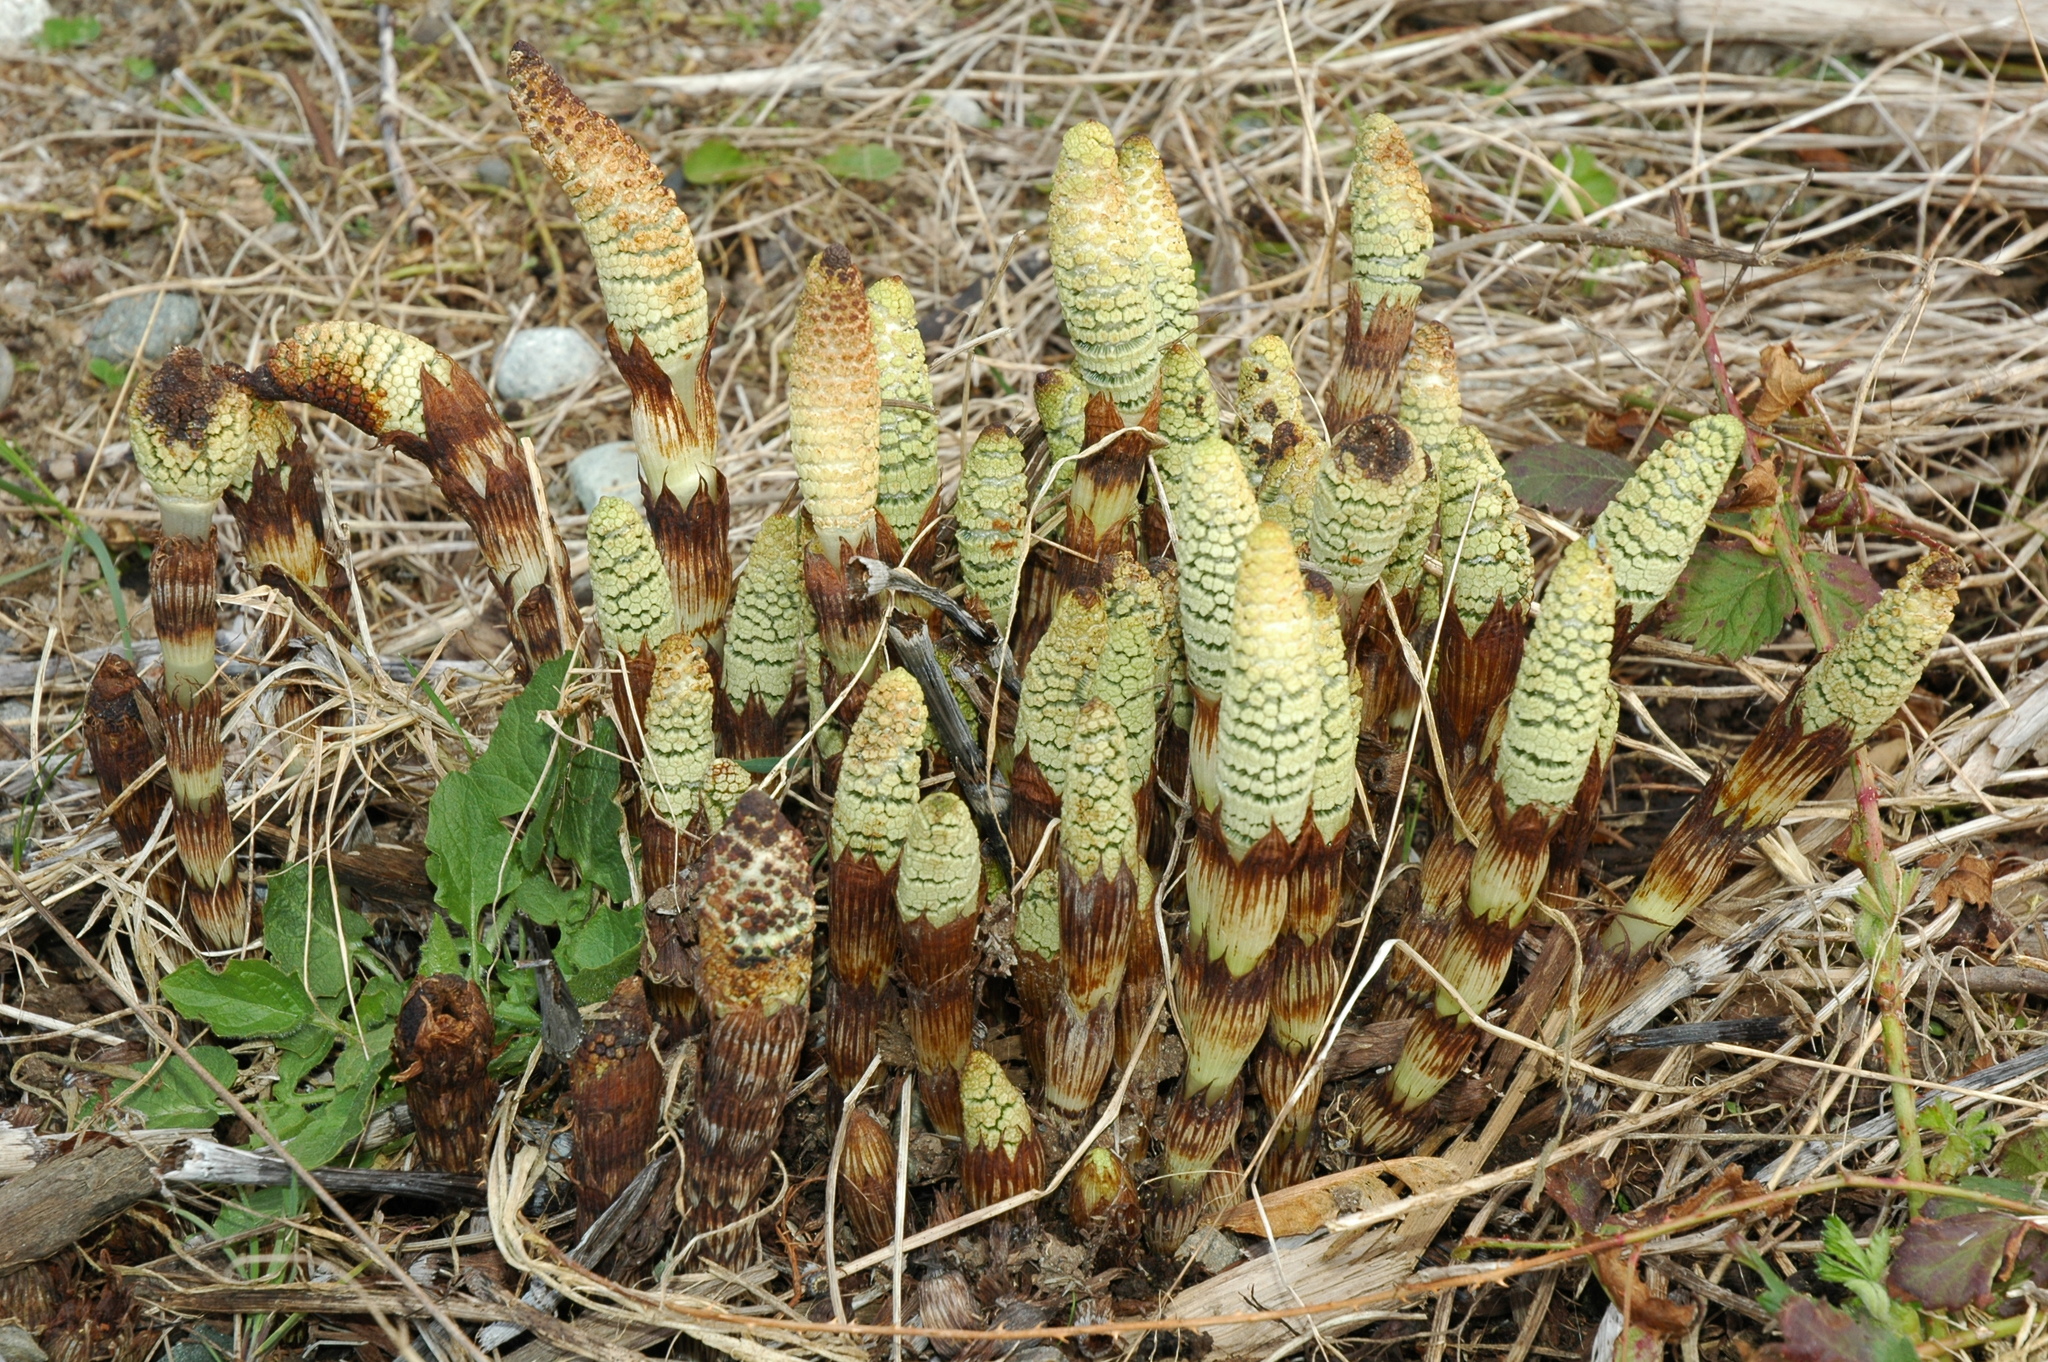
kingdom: Plantae
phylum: Tracheophyta
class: Polypodiopsida
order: Equisetales
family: Equisetaceae
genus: Equisetum
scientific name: Equisetum telmateia
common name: Great horsetail
